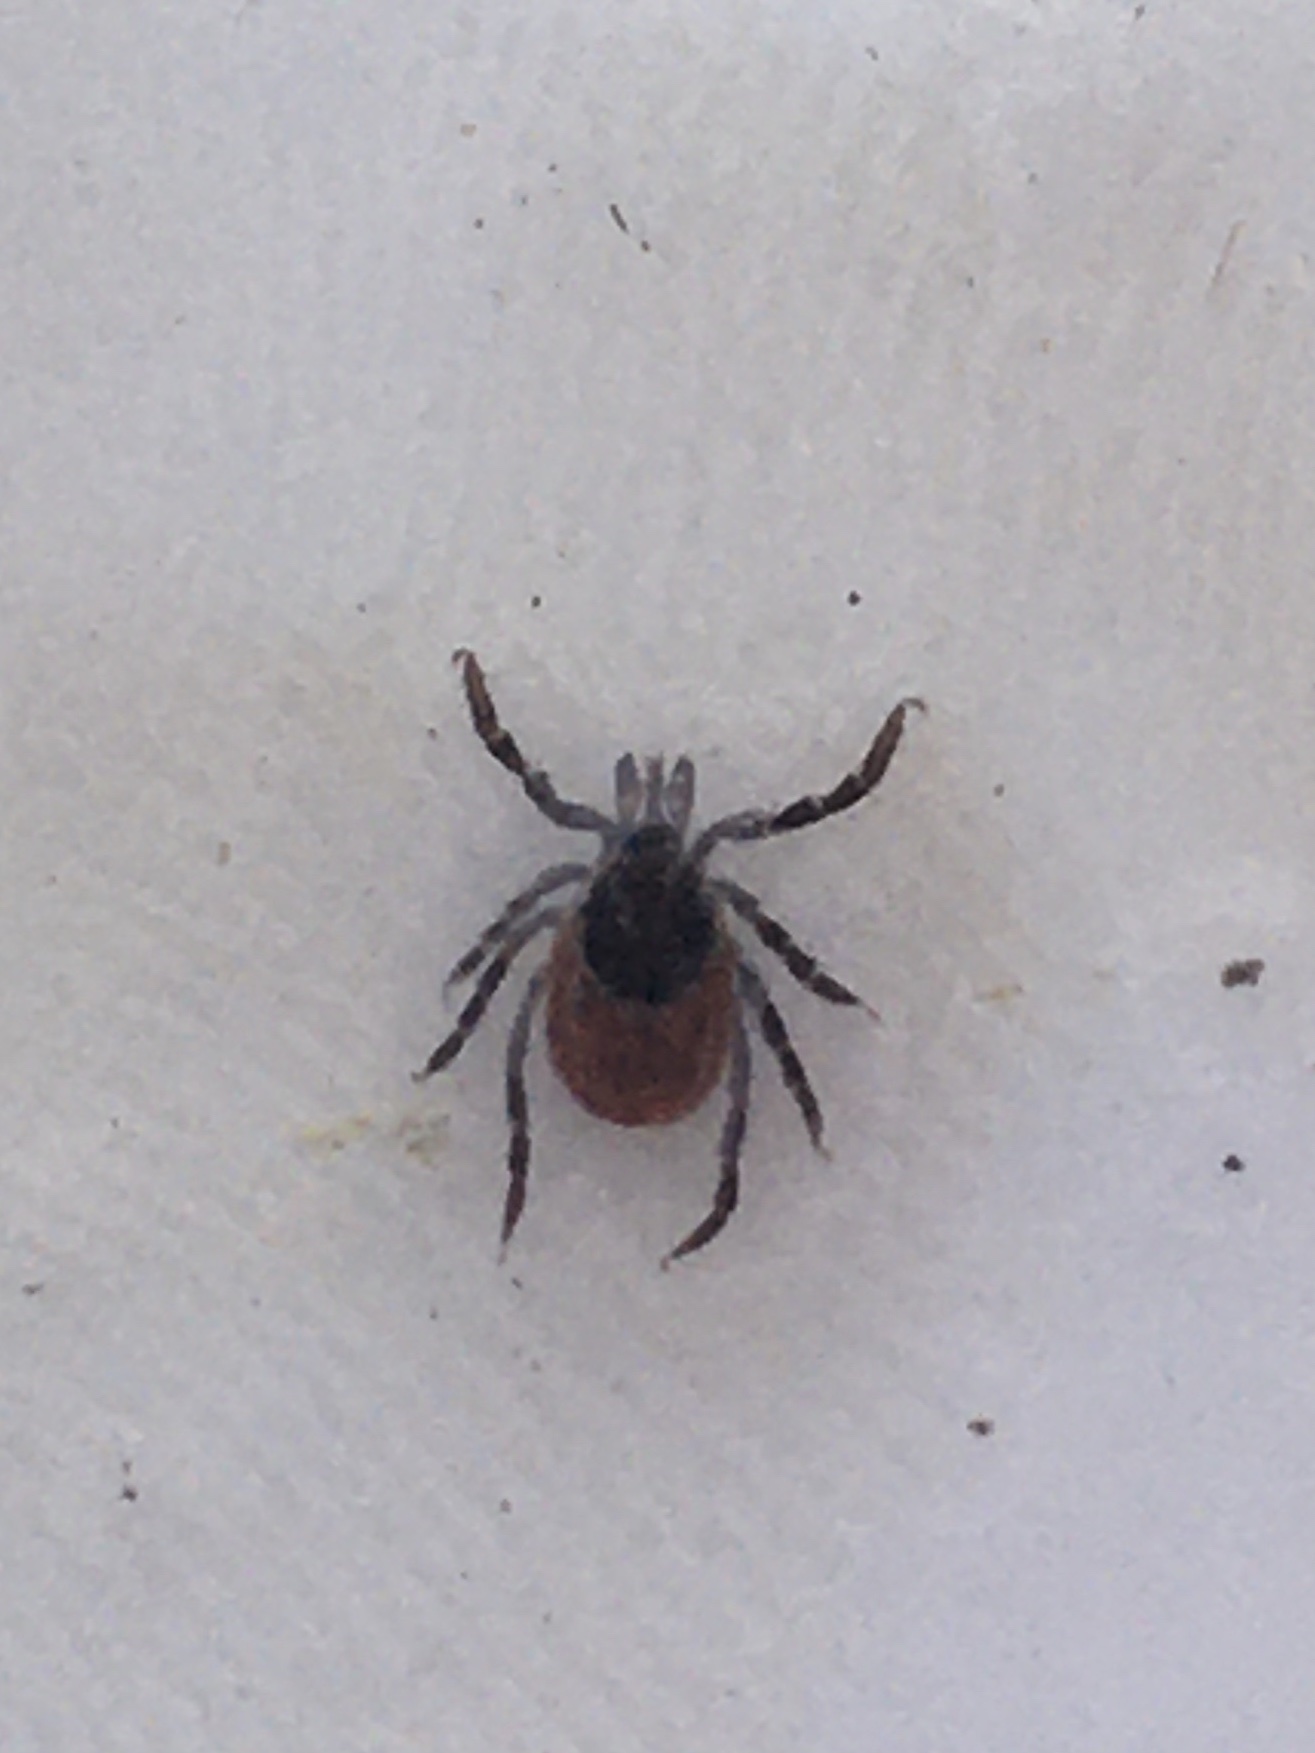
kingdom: Animalia
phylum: Arthropoda
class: Arachnida
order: Ixodida
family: Ixodidae
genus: Ixodes
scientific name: Ixodes scapularis
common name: Black legged tick
